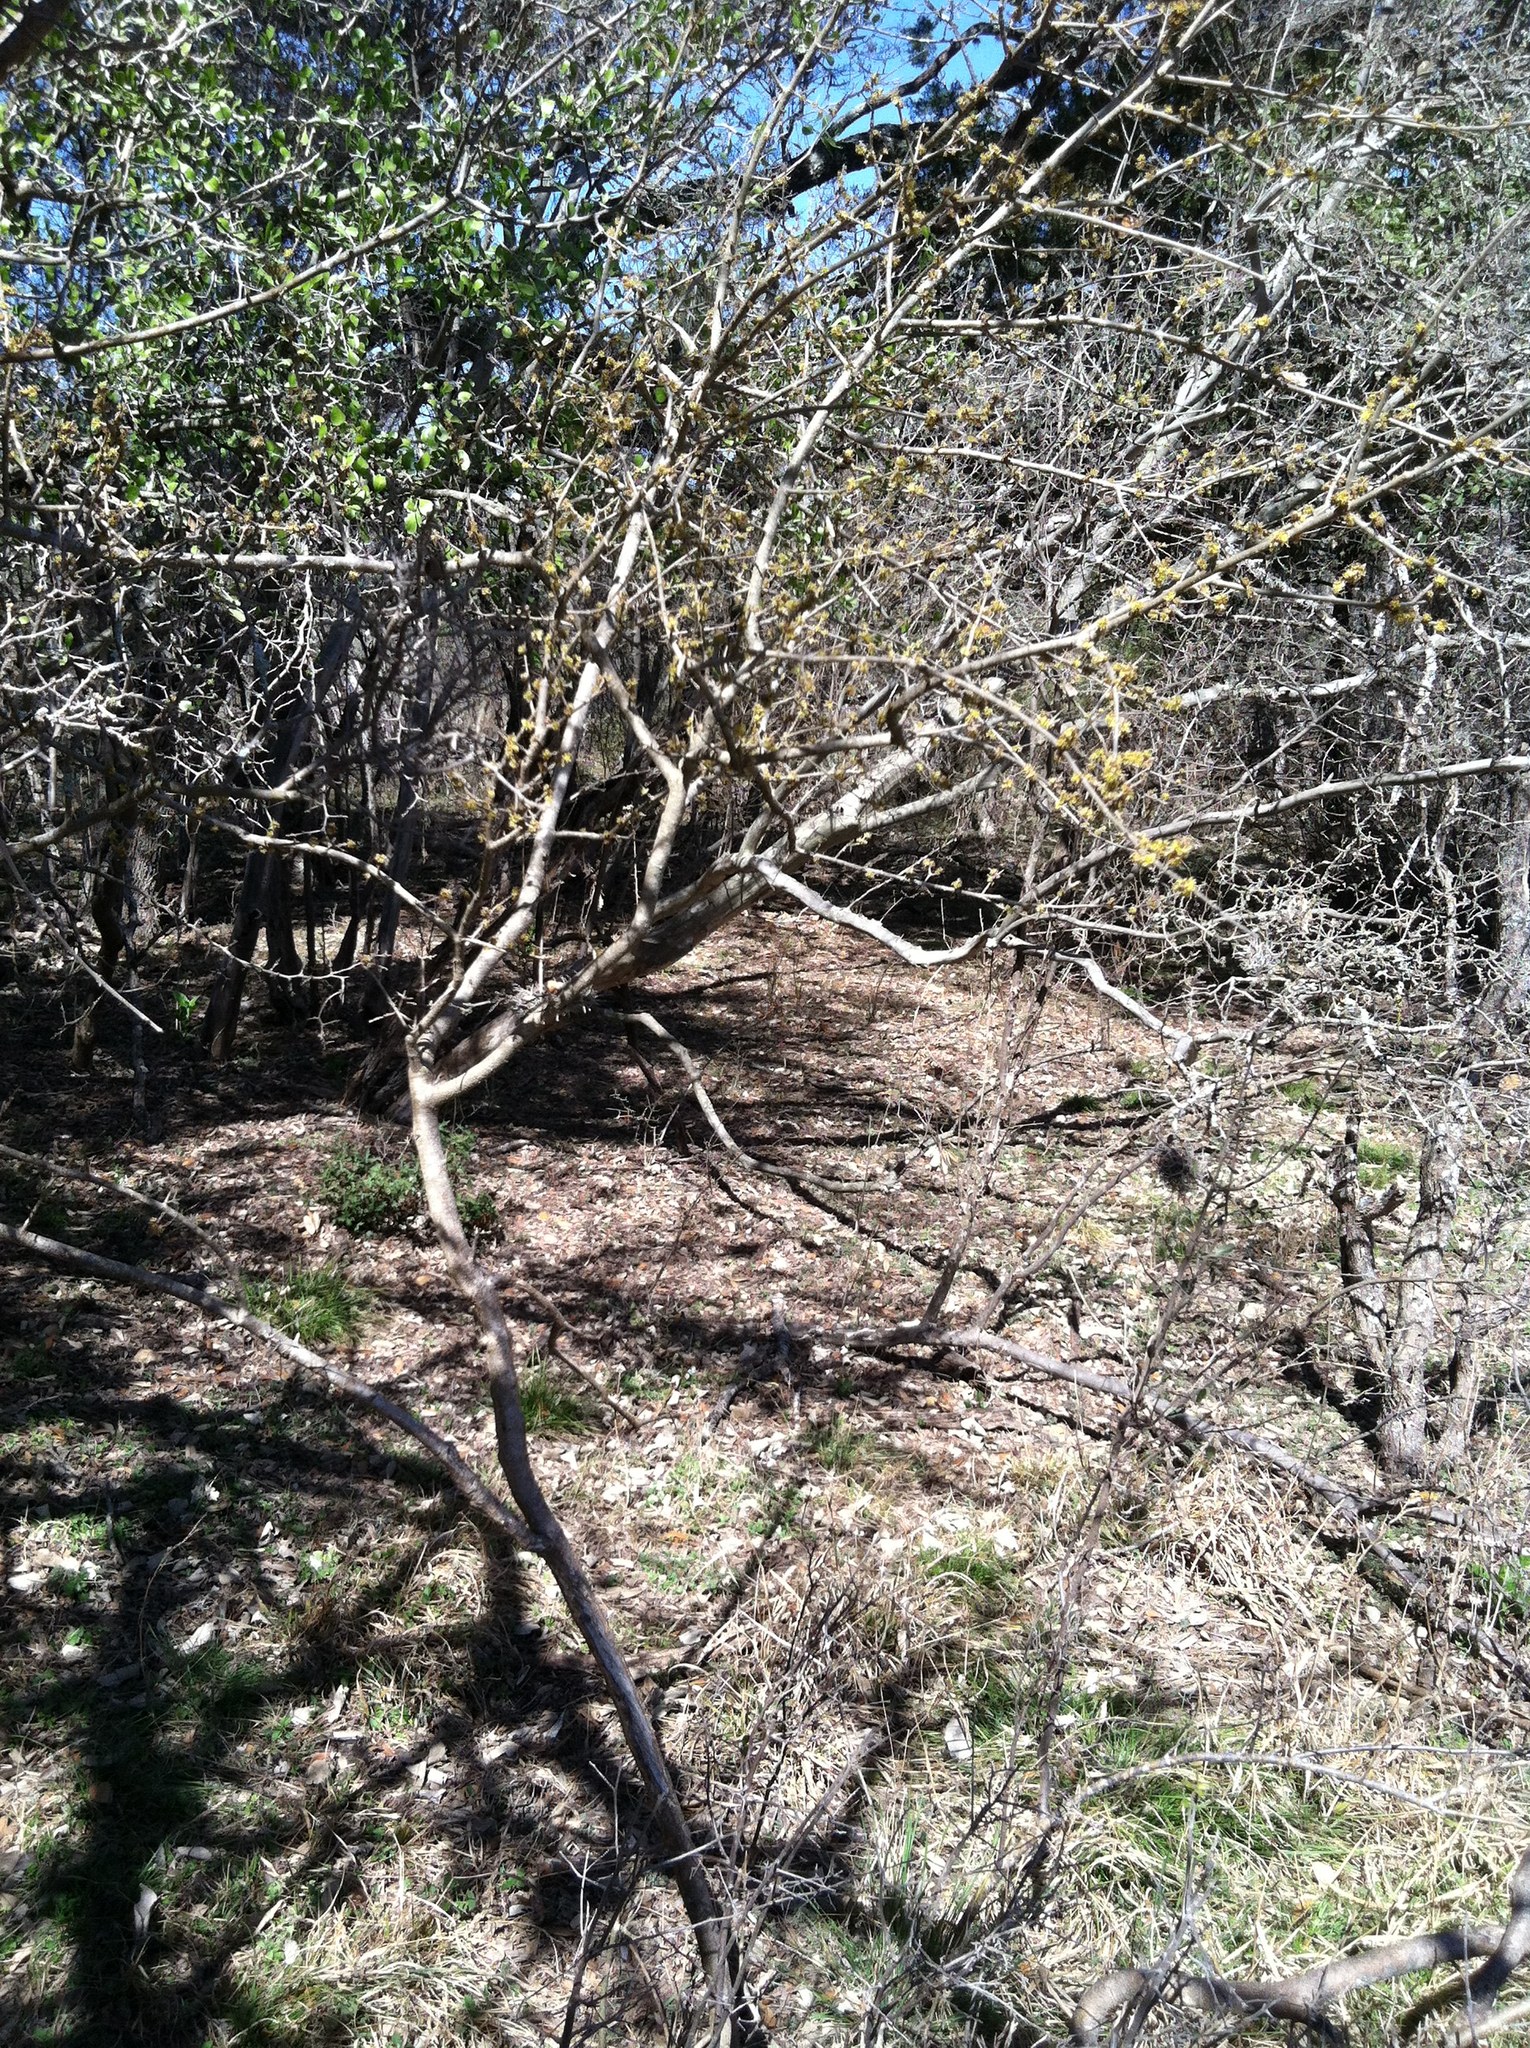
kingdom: Plantae
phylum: Tracheophyta
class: Magnoliopsida
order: Lamiales
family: Oleaceae
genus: Forestiera
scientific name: Forestiera pubescens
